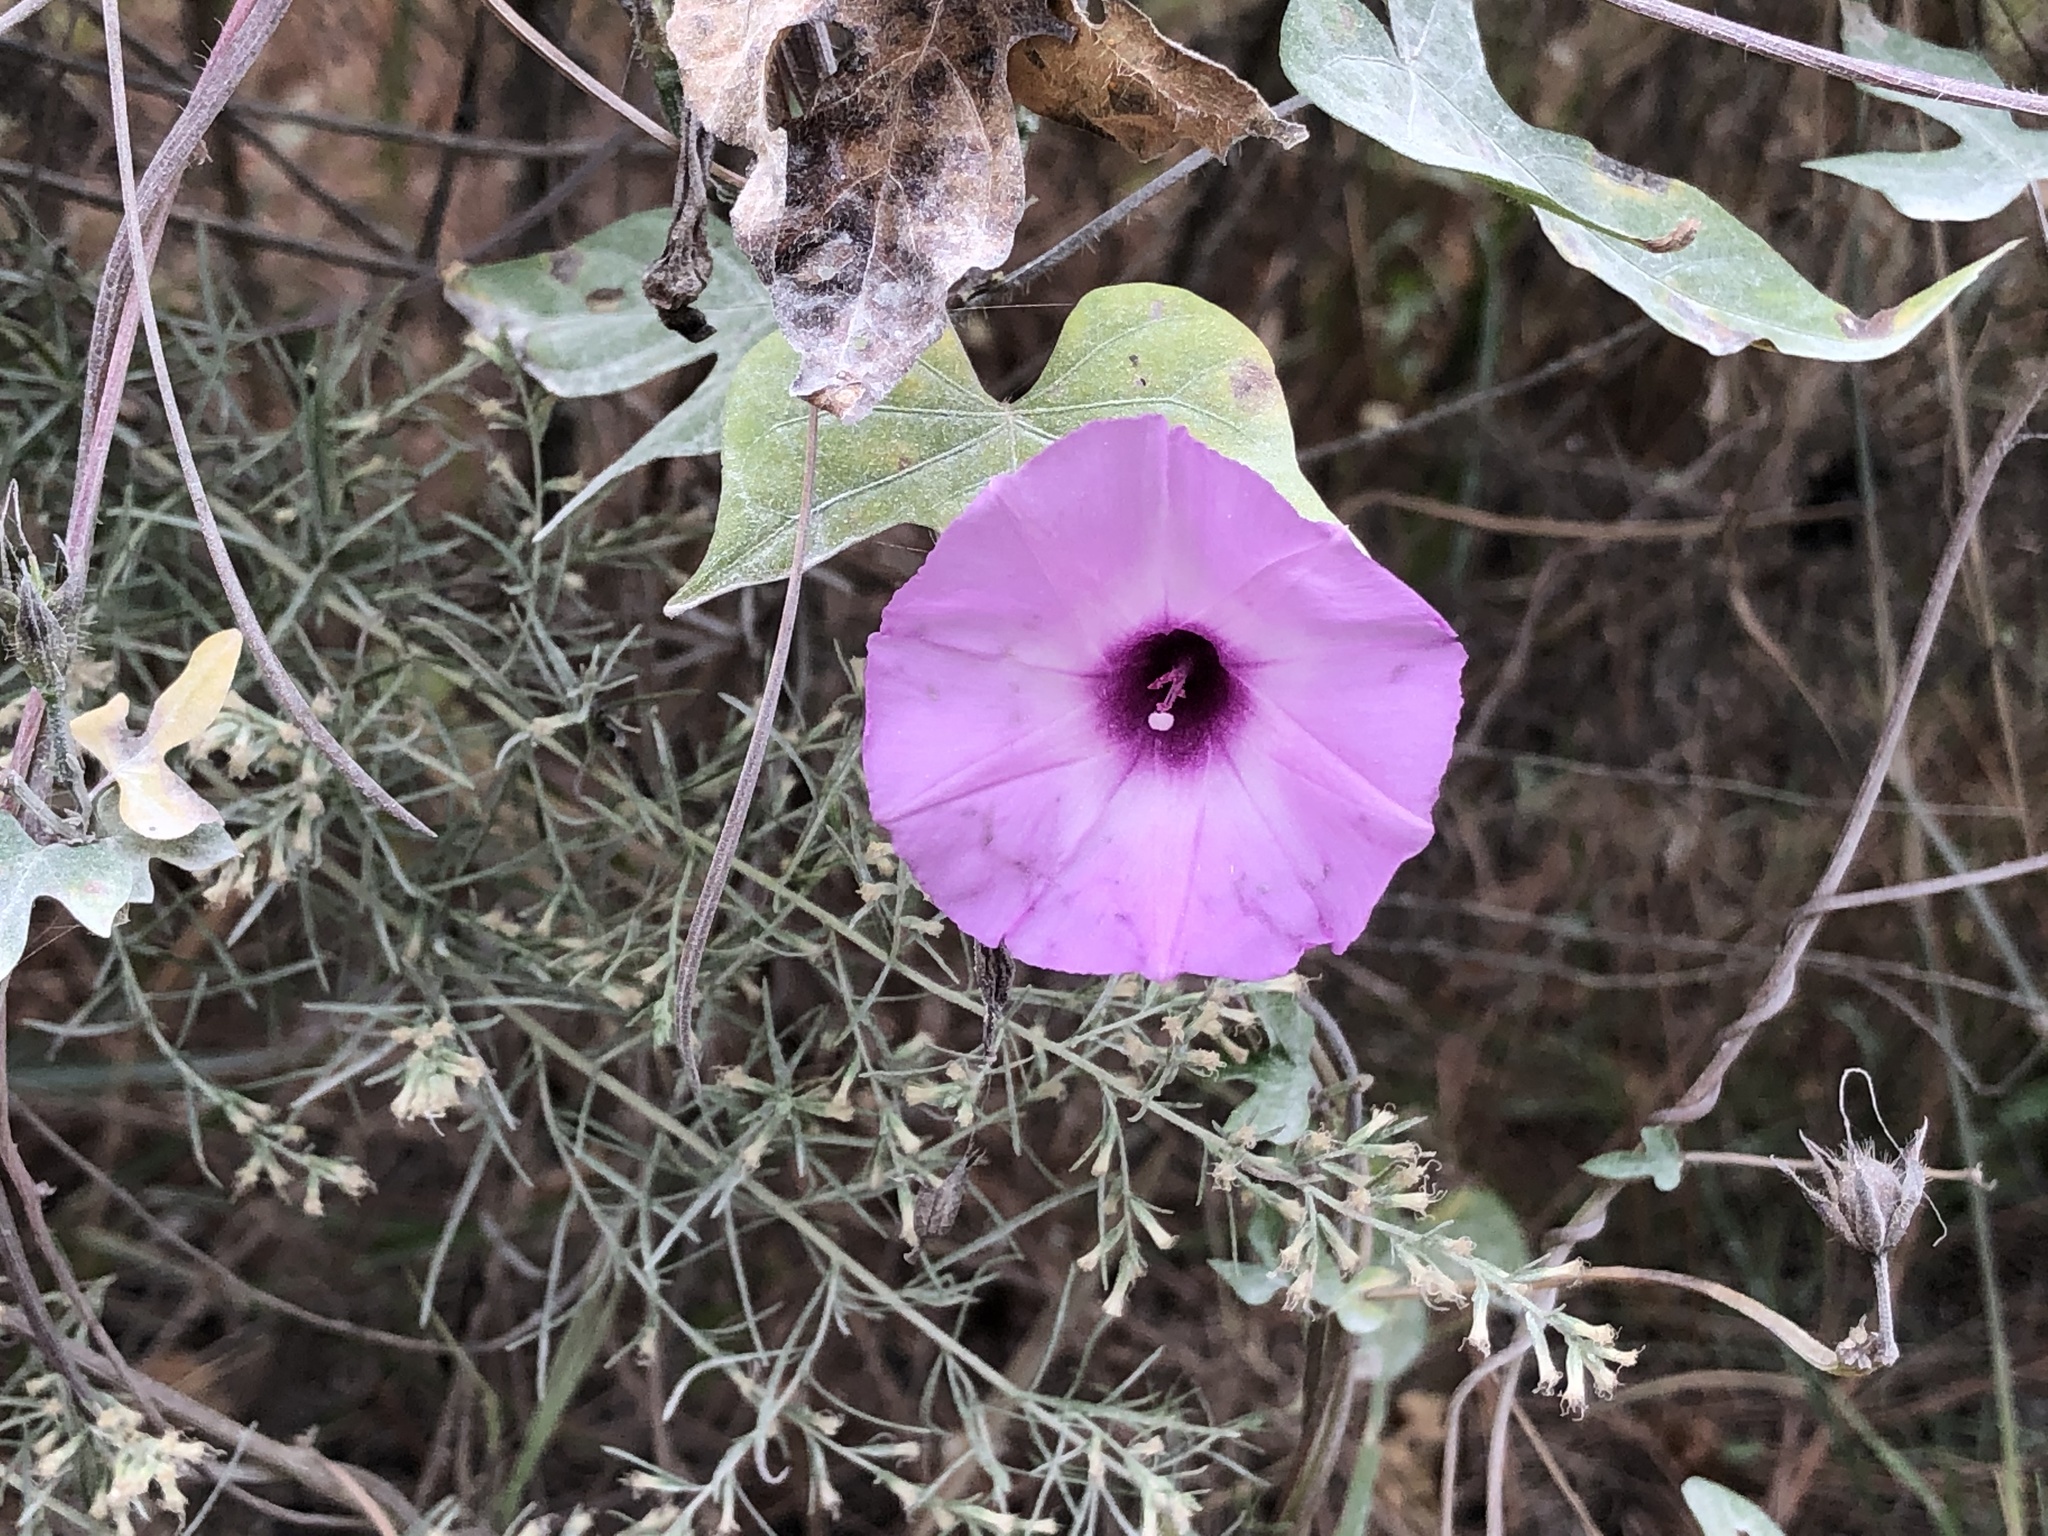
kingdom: Plantae
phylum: Tracheophyta
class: Magnoliopsida
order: Solanales
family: Convolvulaceae
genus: Ipomoea
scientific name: Ipomoea cordatotriloba
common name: Cotton morning glory
